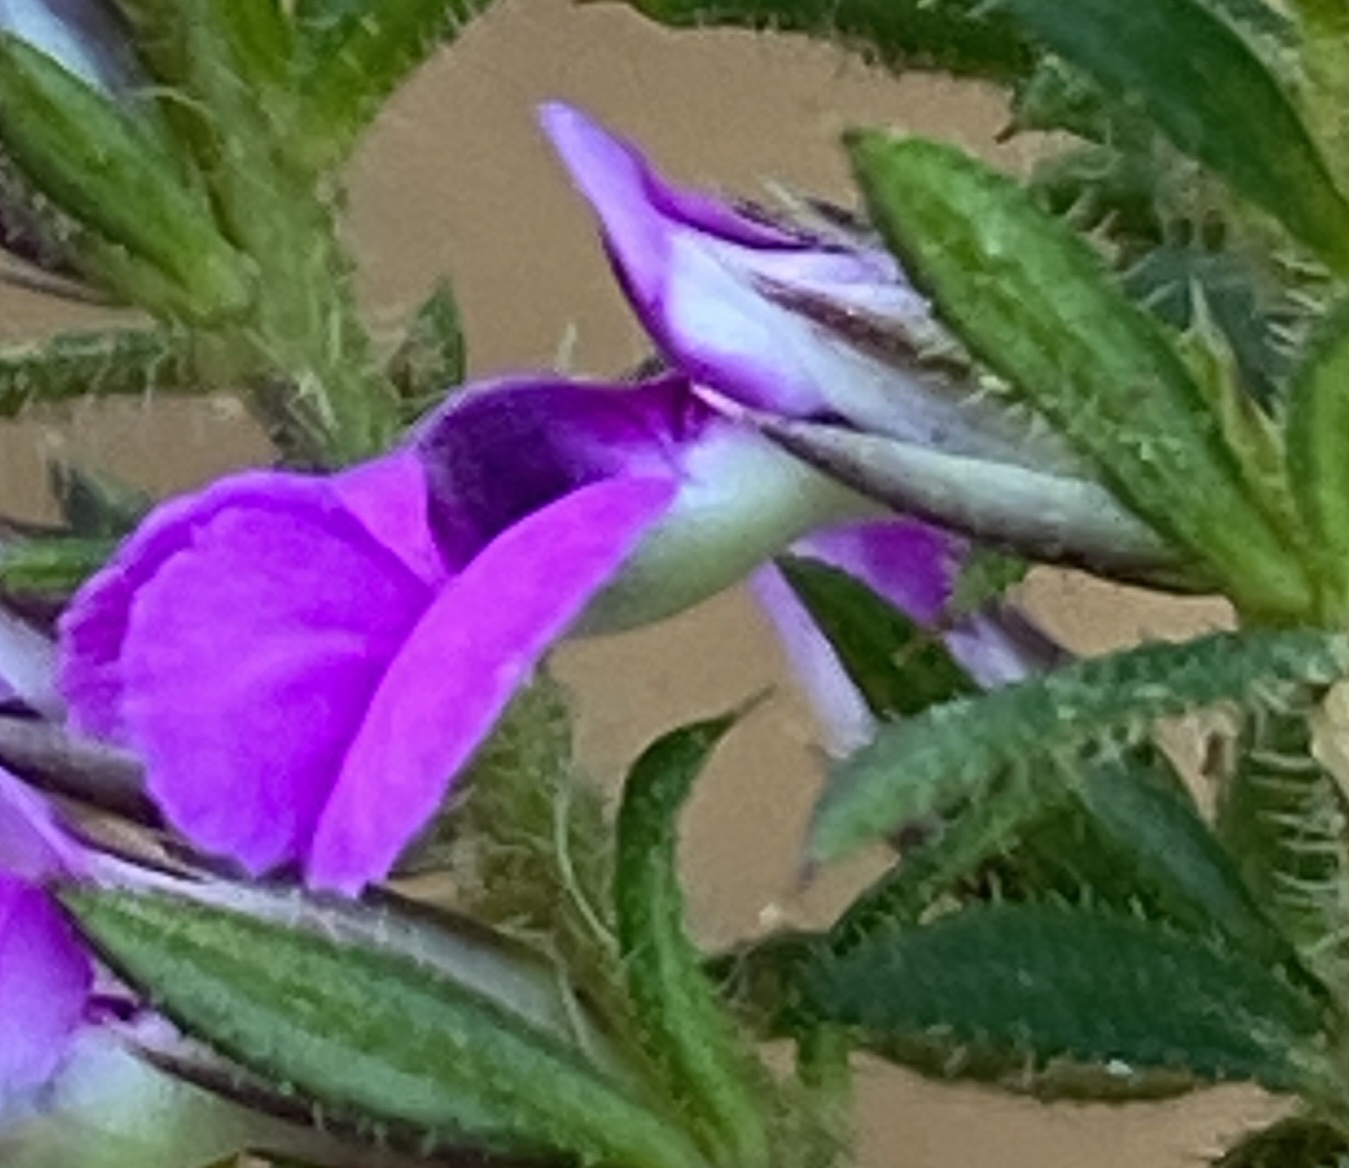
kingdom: Plantae
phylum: Tracheophyta
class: Magnoliopsida
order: Fabales
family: Polygalaceae
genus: Muraltia
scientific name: Muraltia aciphylla
